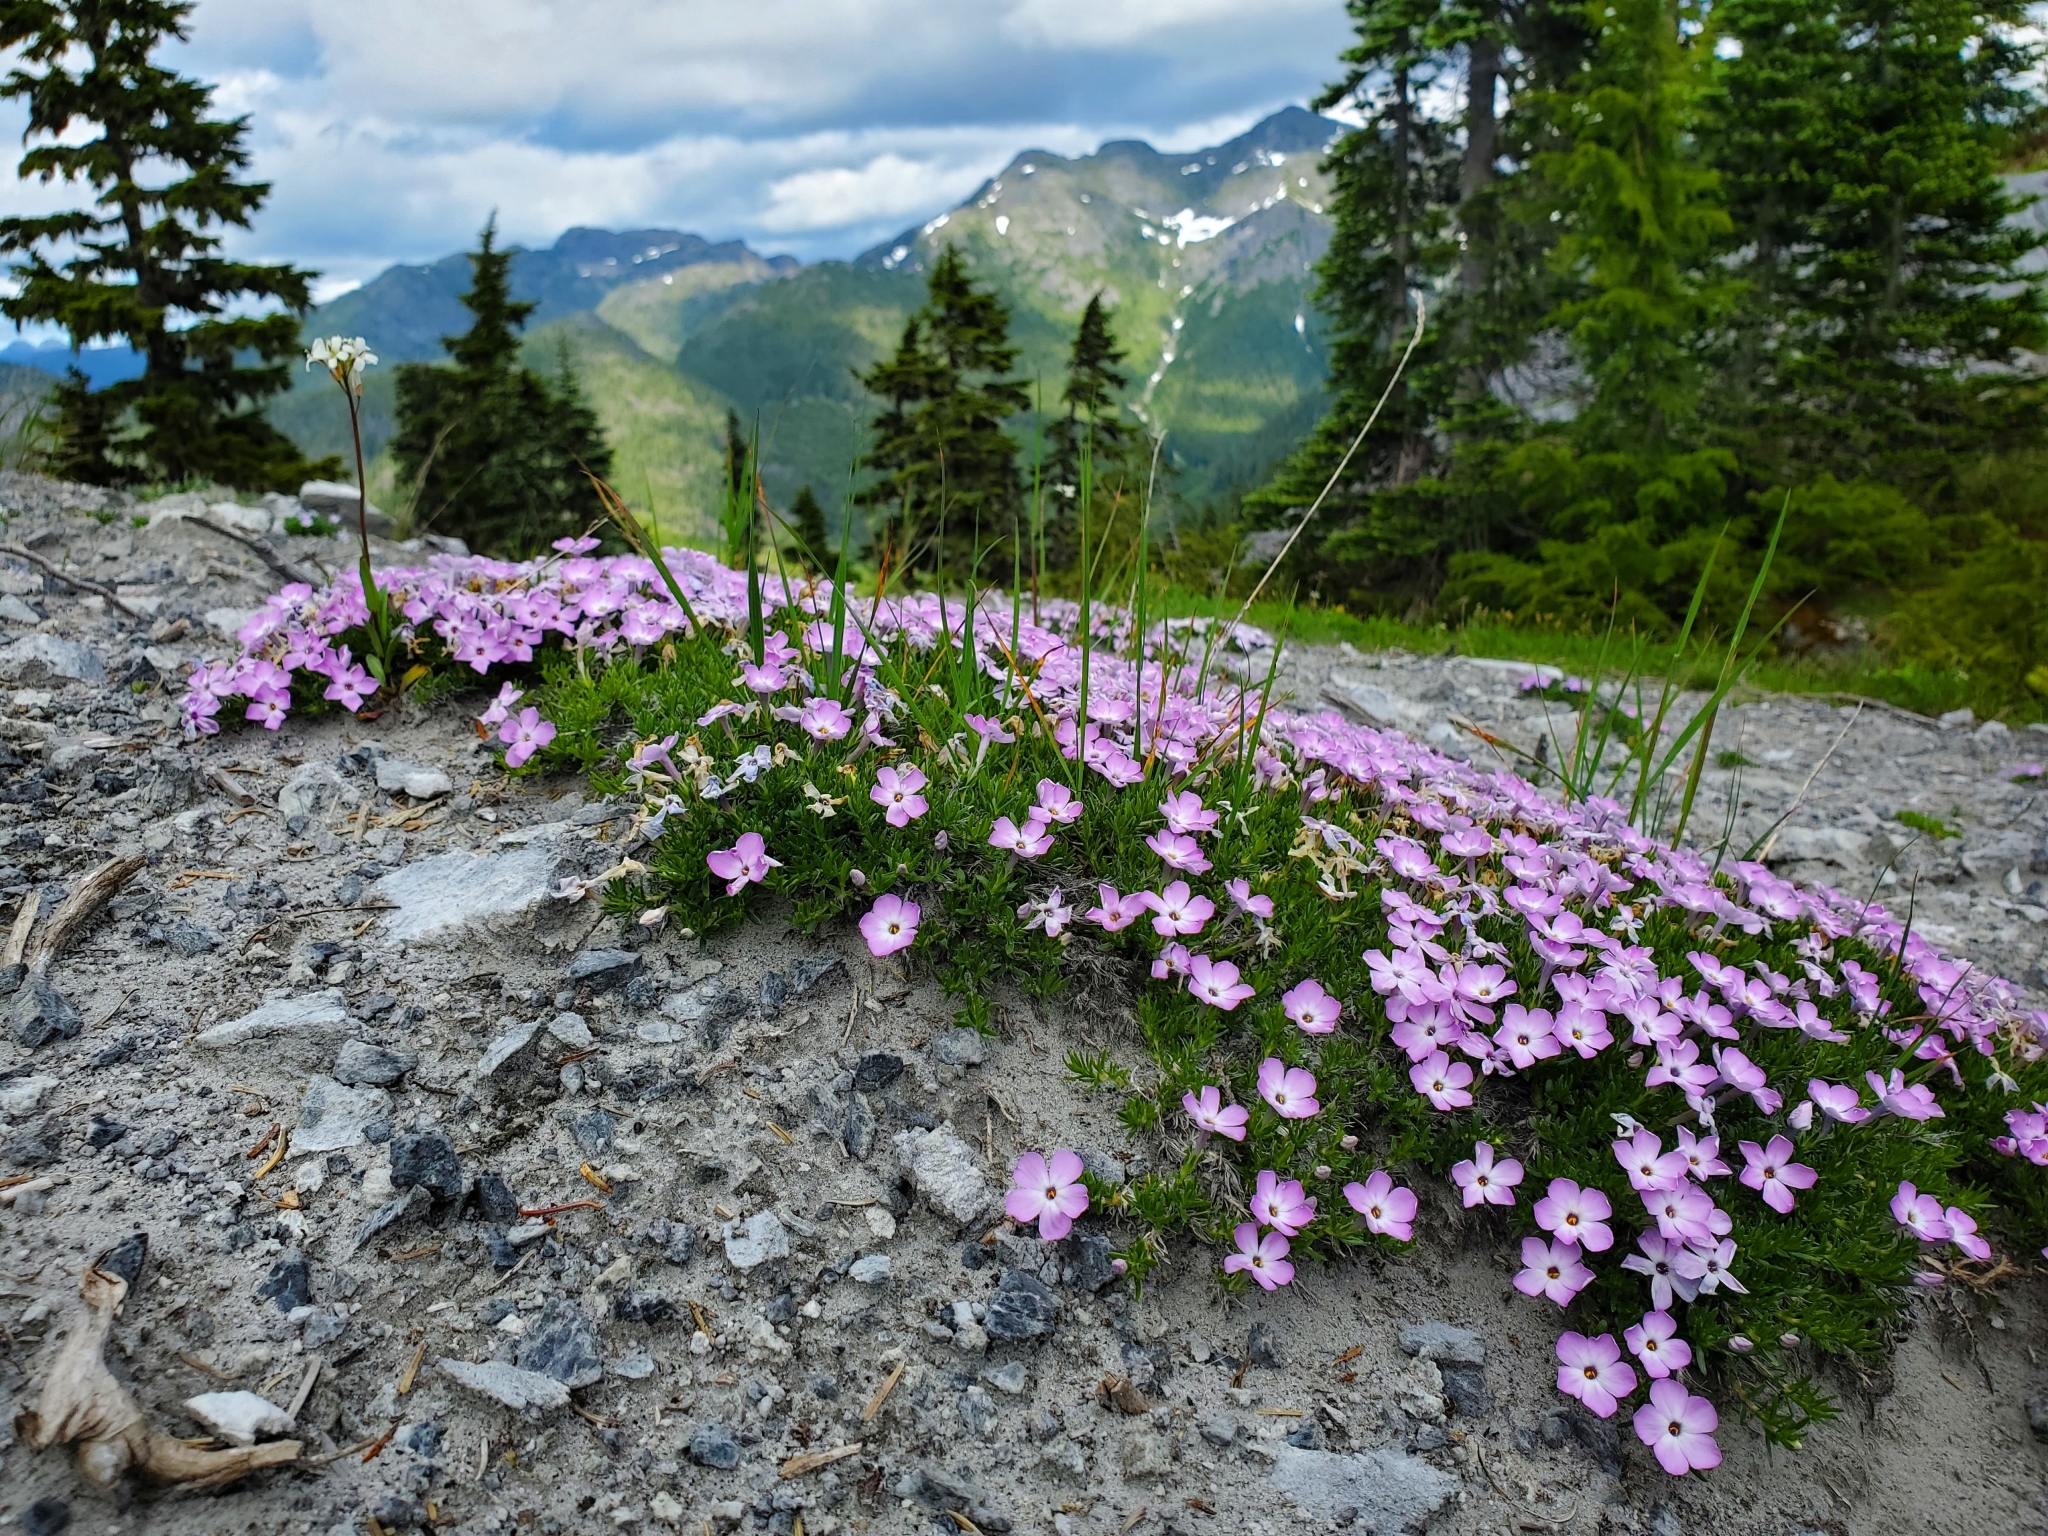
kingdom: Plantae
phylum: Tracheophyta
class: Magnoliopsida
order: Ericales
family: Polemoniaceae
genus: Phlox
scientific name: Phlox diffusa
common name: Mat phlox
